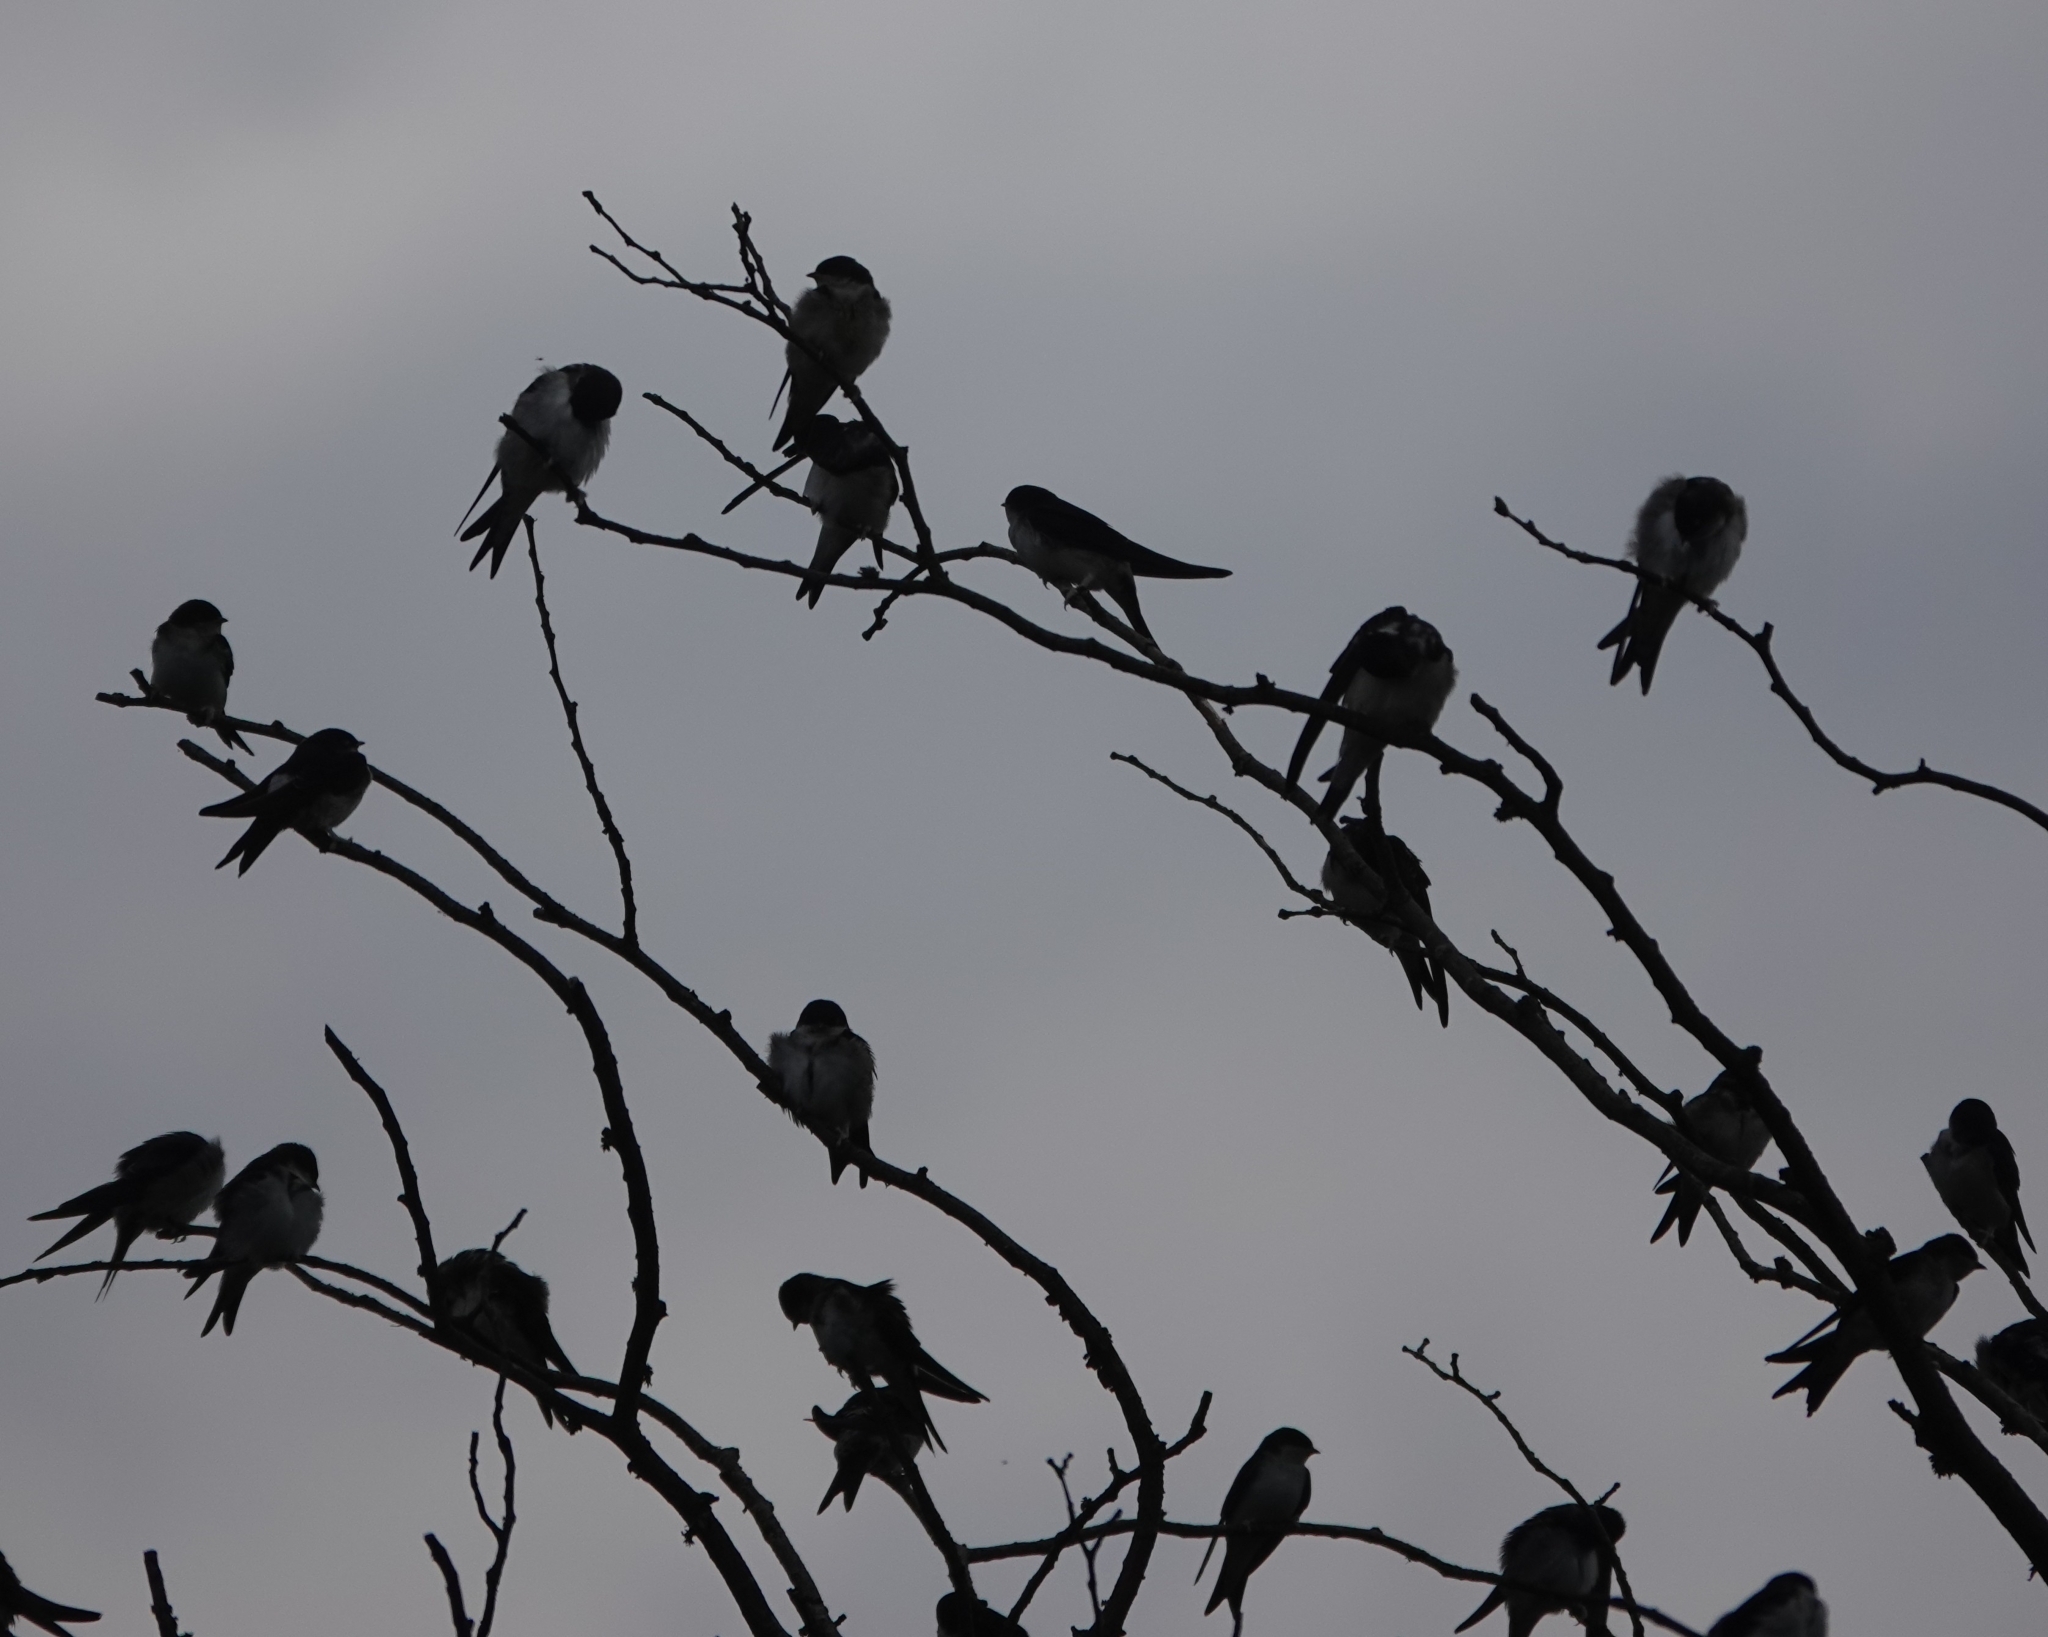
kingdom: Animalia
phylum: Chordata
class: Aves
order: Passeriformes
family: Hirundinidae
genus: Delichon
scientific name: Delichon urbicum
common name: Common house martin
